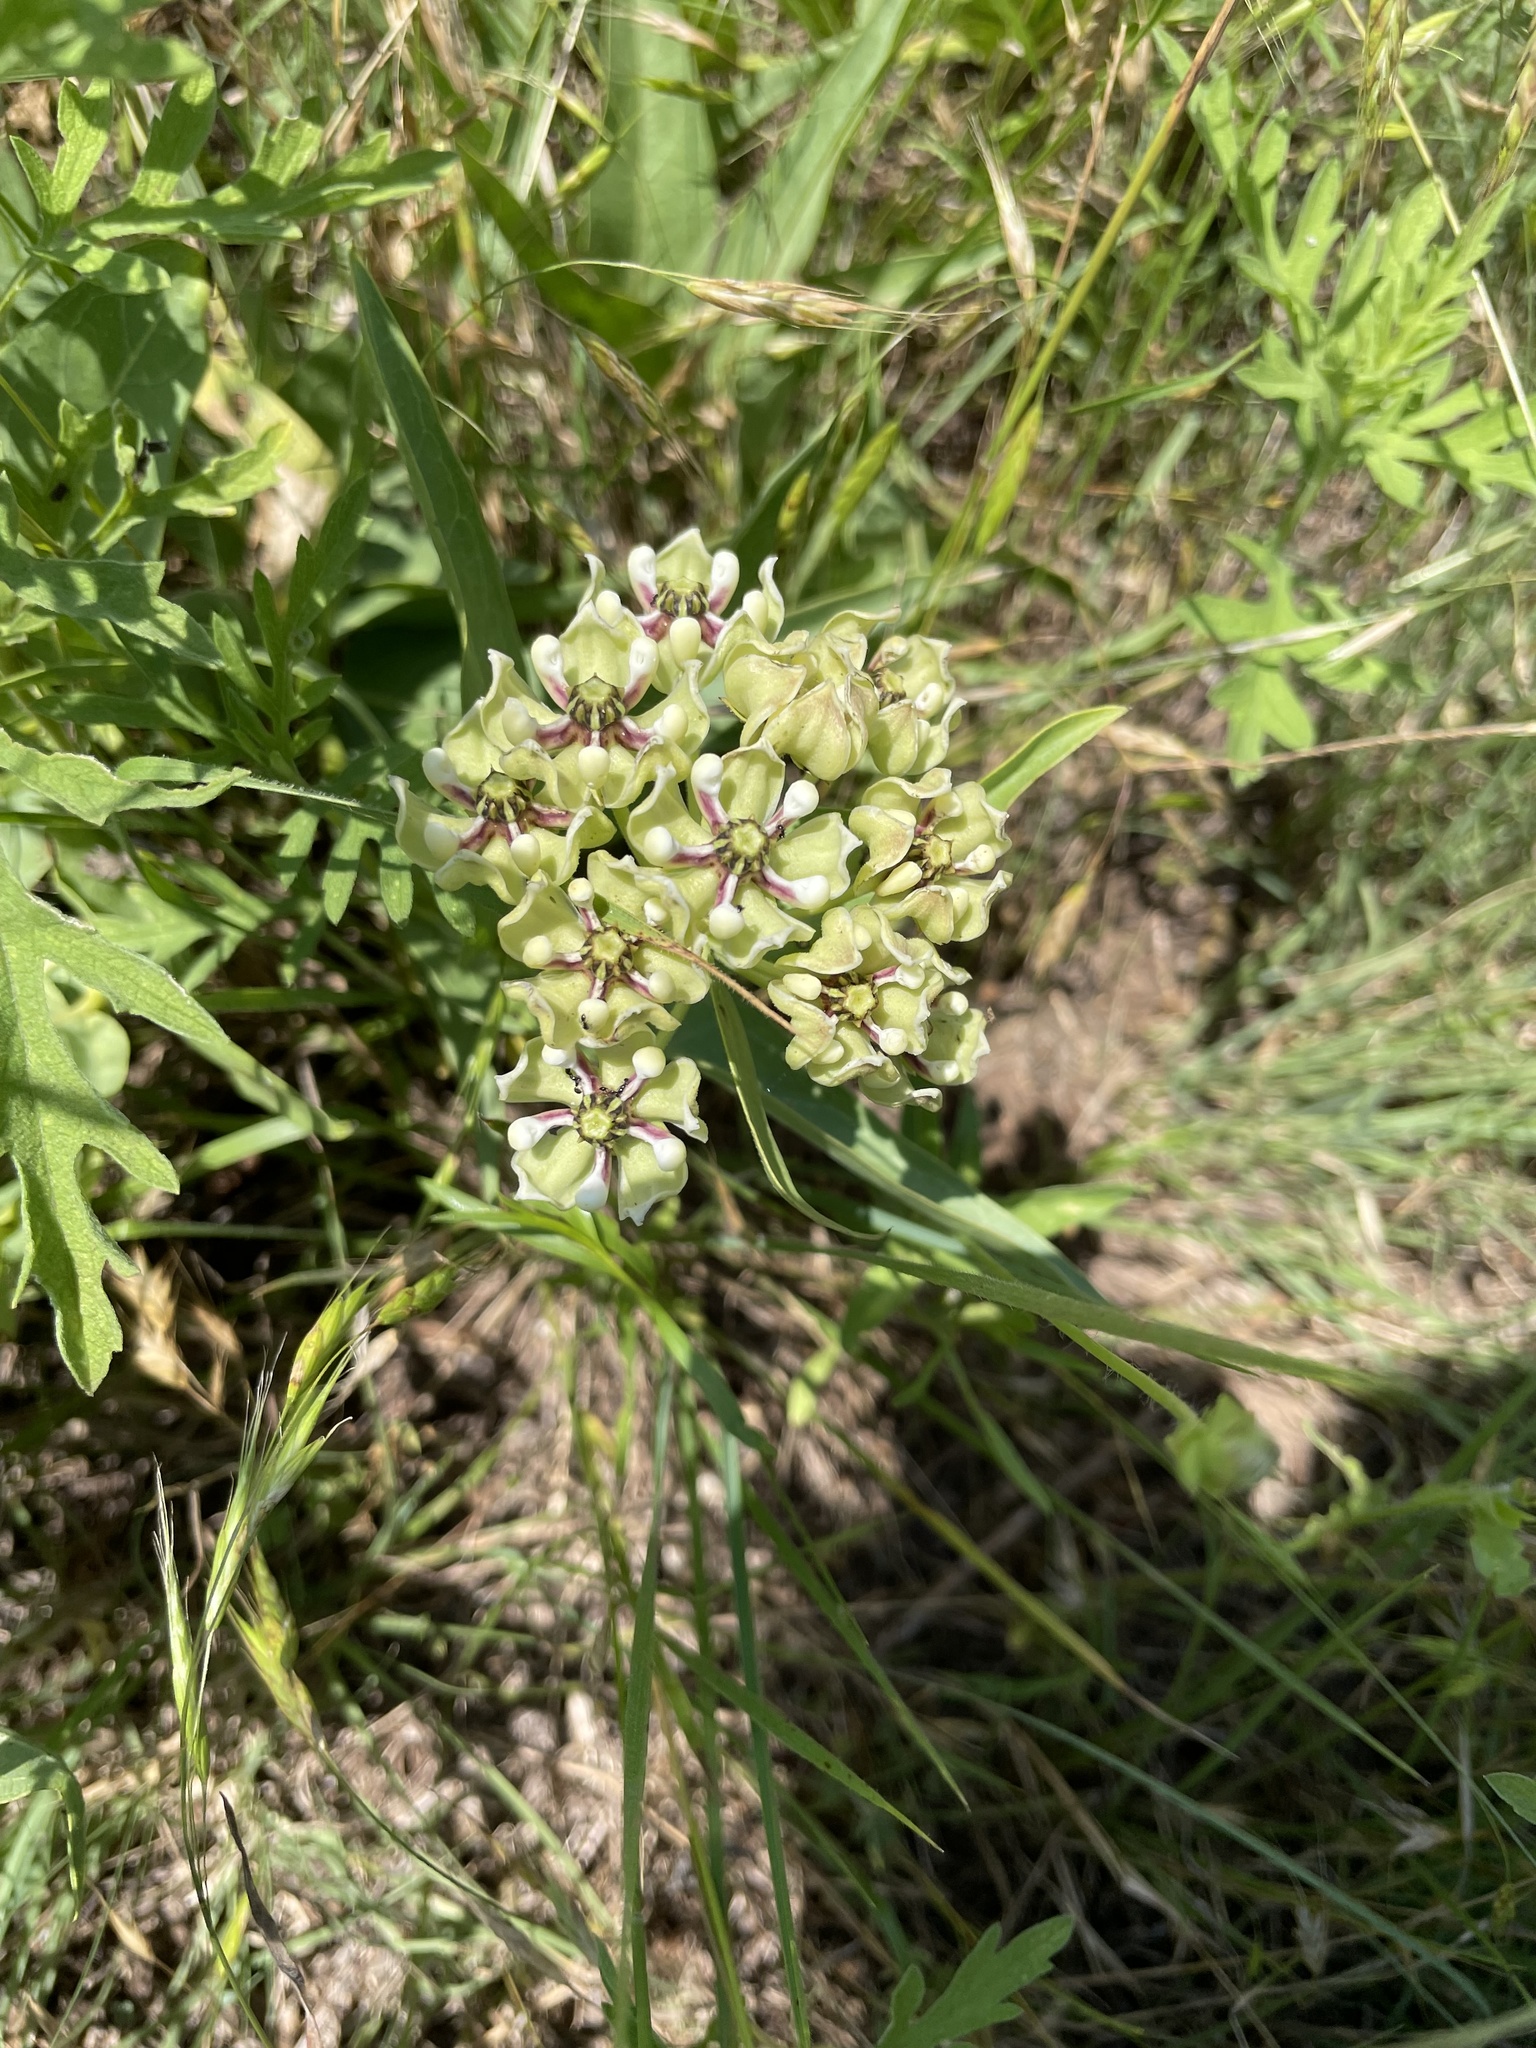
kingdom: Plantae
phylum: Tracheophyta
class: Magnoliopsida
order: Gentianales
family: Apocynaceae
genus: Asclepias
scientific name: Asclepias asperula
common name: Antelope horns
